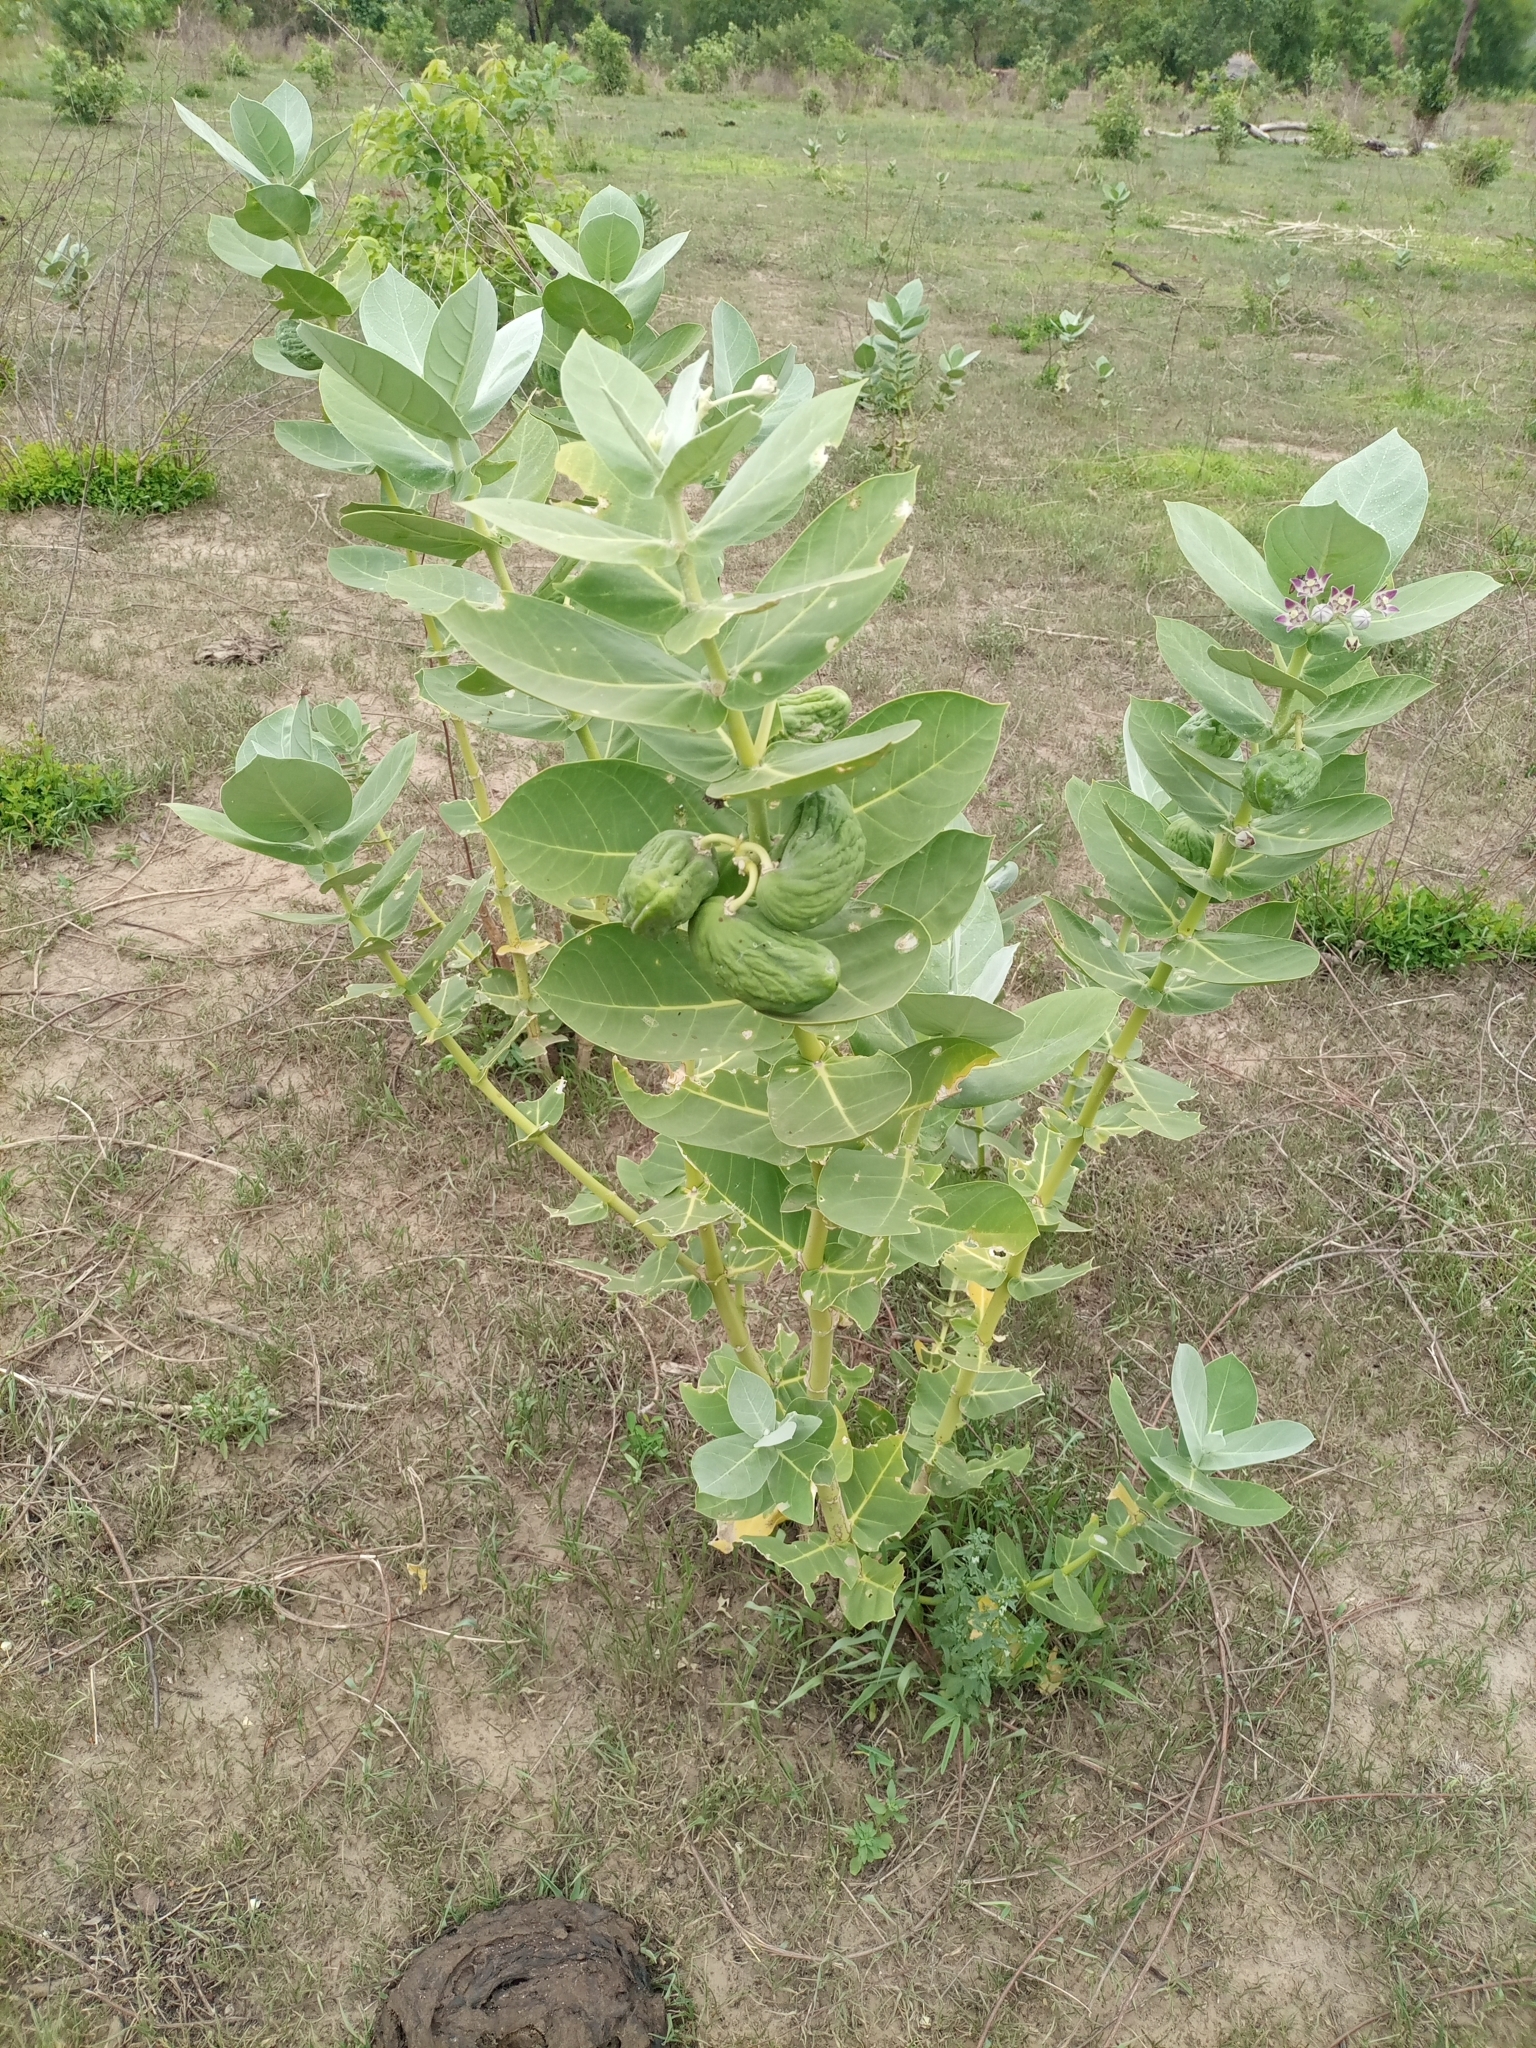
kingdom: Plantae
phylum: Tracheophyta
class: Magnoliopsida
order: Gentianales
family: Apocynaceae
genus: Calotropis
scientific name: Calotropis procera
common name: Roostertree
